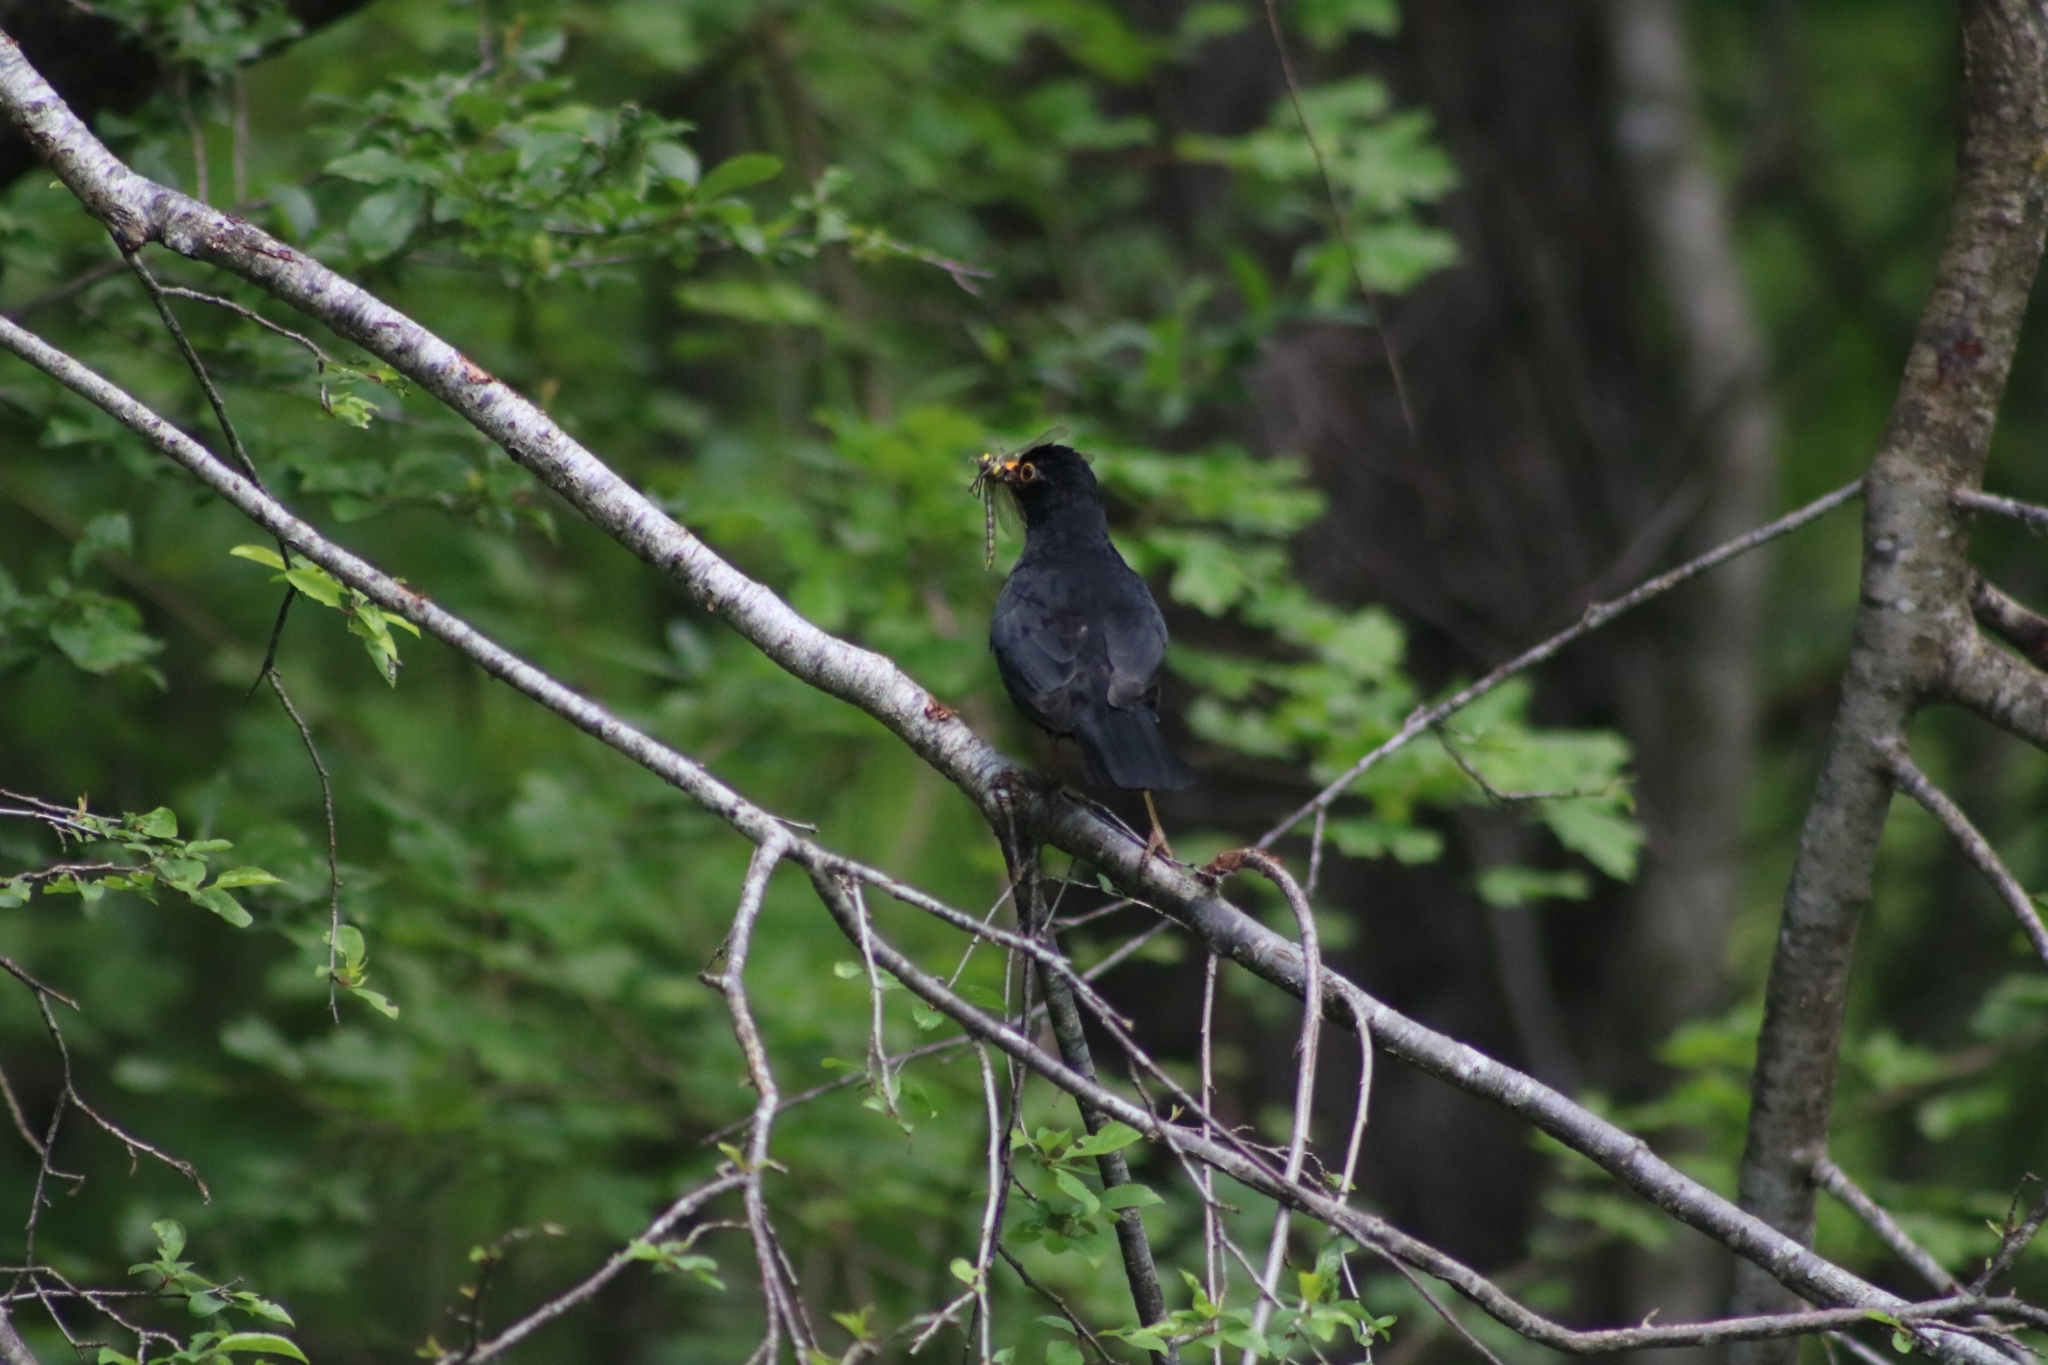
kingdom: Animalia
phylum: Chordata
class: Aves
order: Passeriformes
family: Turdidae
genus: Turdus
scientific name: Turdus merula
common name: Common blackbird
